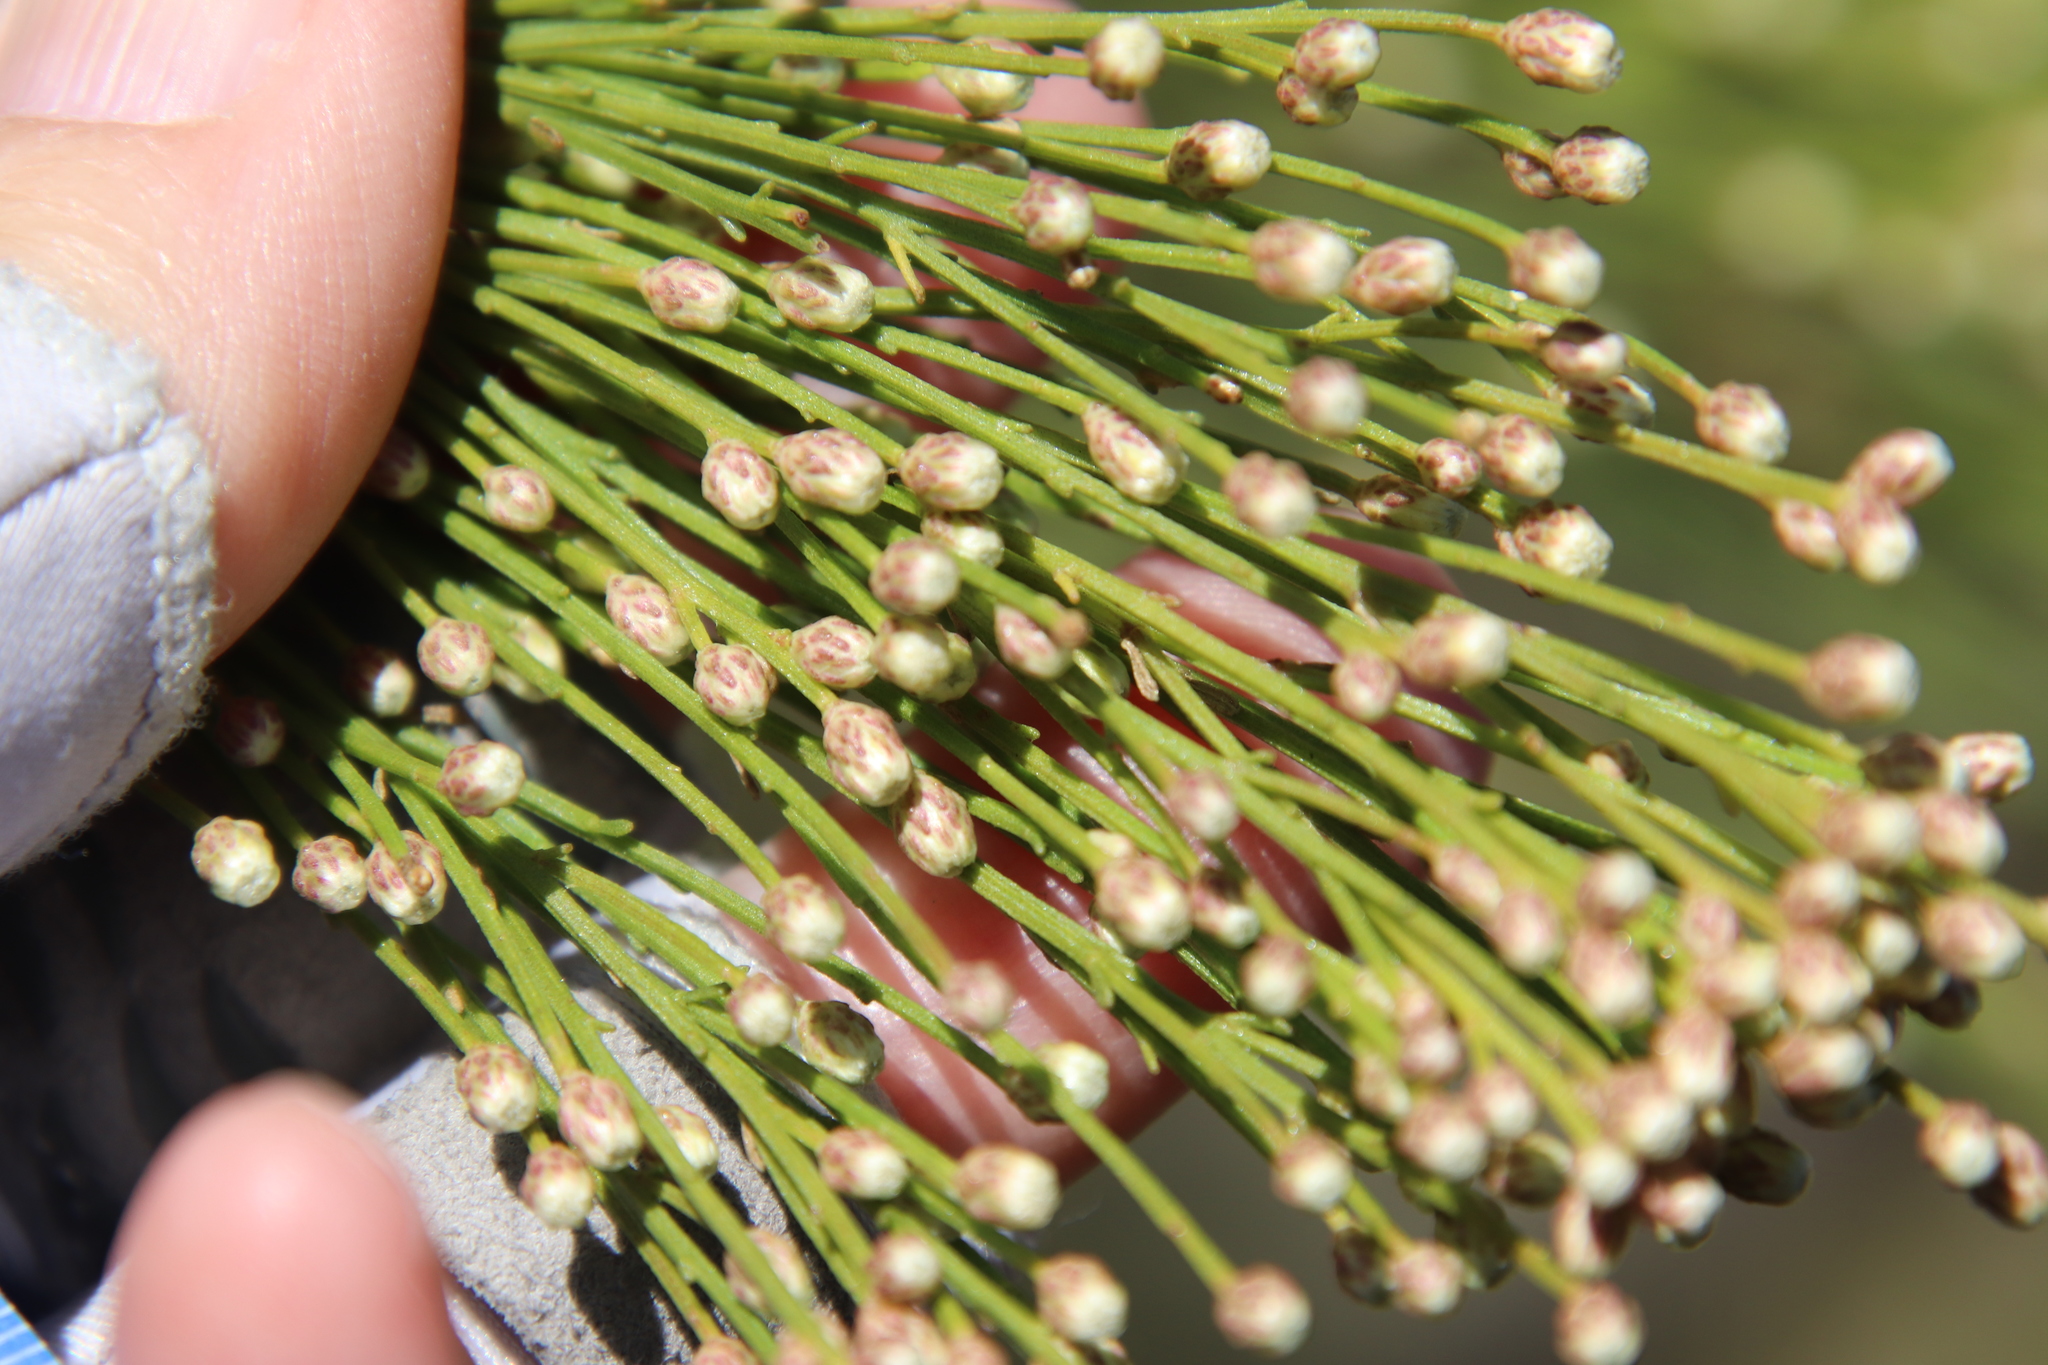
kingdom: Plantae
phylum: Tracheophyta
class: Magnoliopsida
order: Asterales
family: Asteraceae
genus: Baccharis
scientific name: Baccharis sarothroides
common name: Desert-broom
